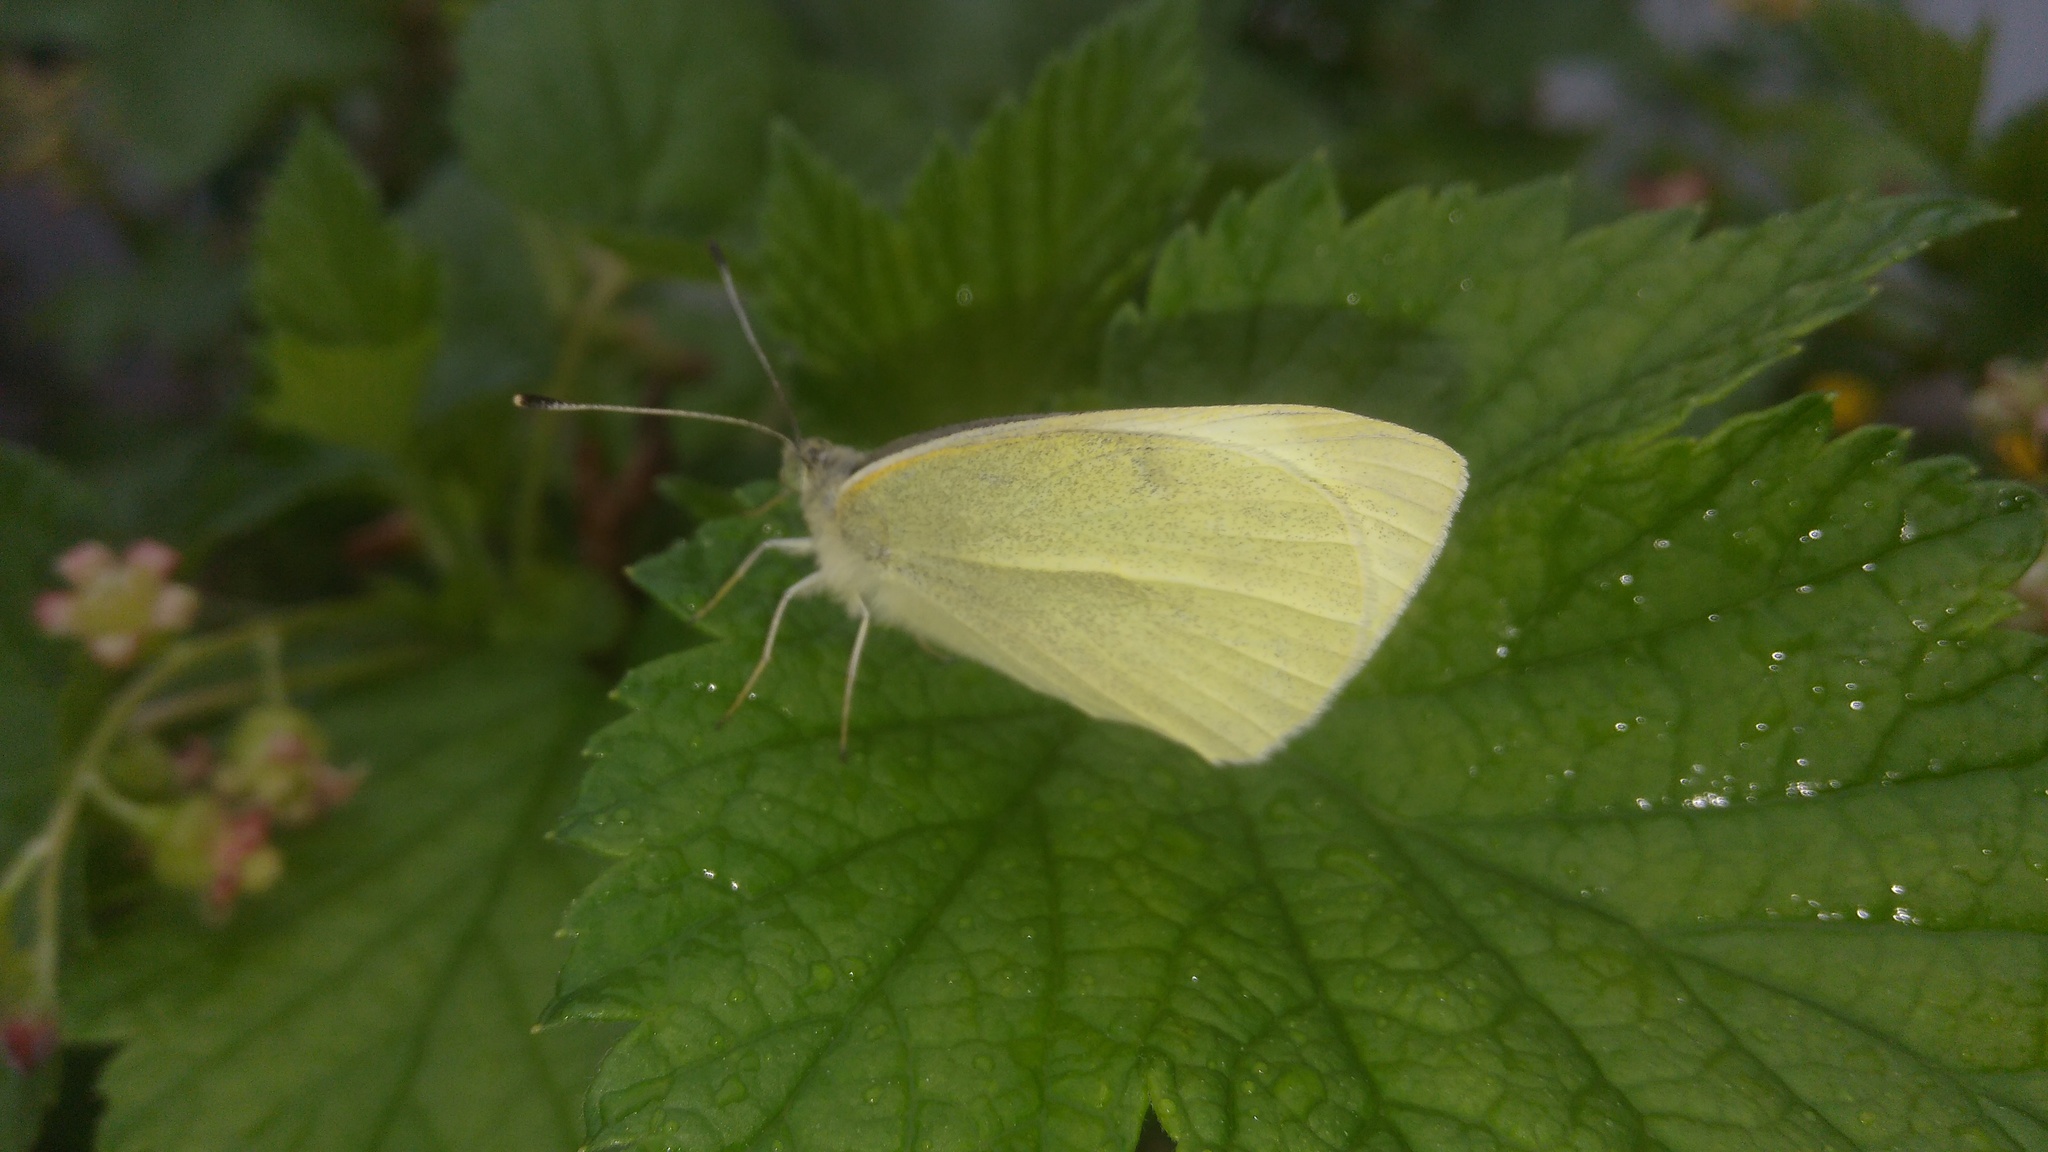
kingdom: Animalia
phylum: Arthropoda
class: Insecta
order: Lepidoptera
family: Pieridae
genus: Pieris
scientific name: Pieris rapae
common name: Small white
